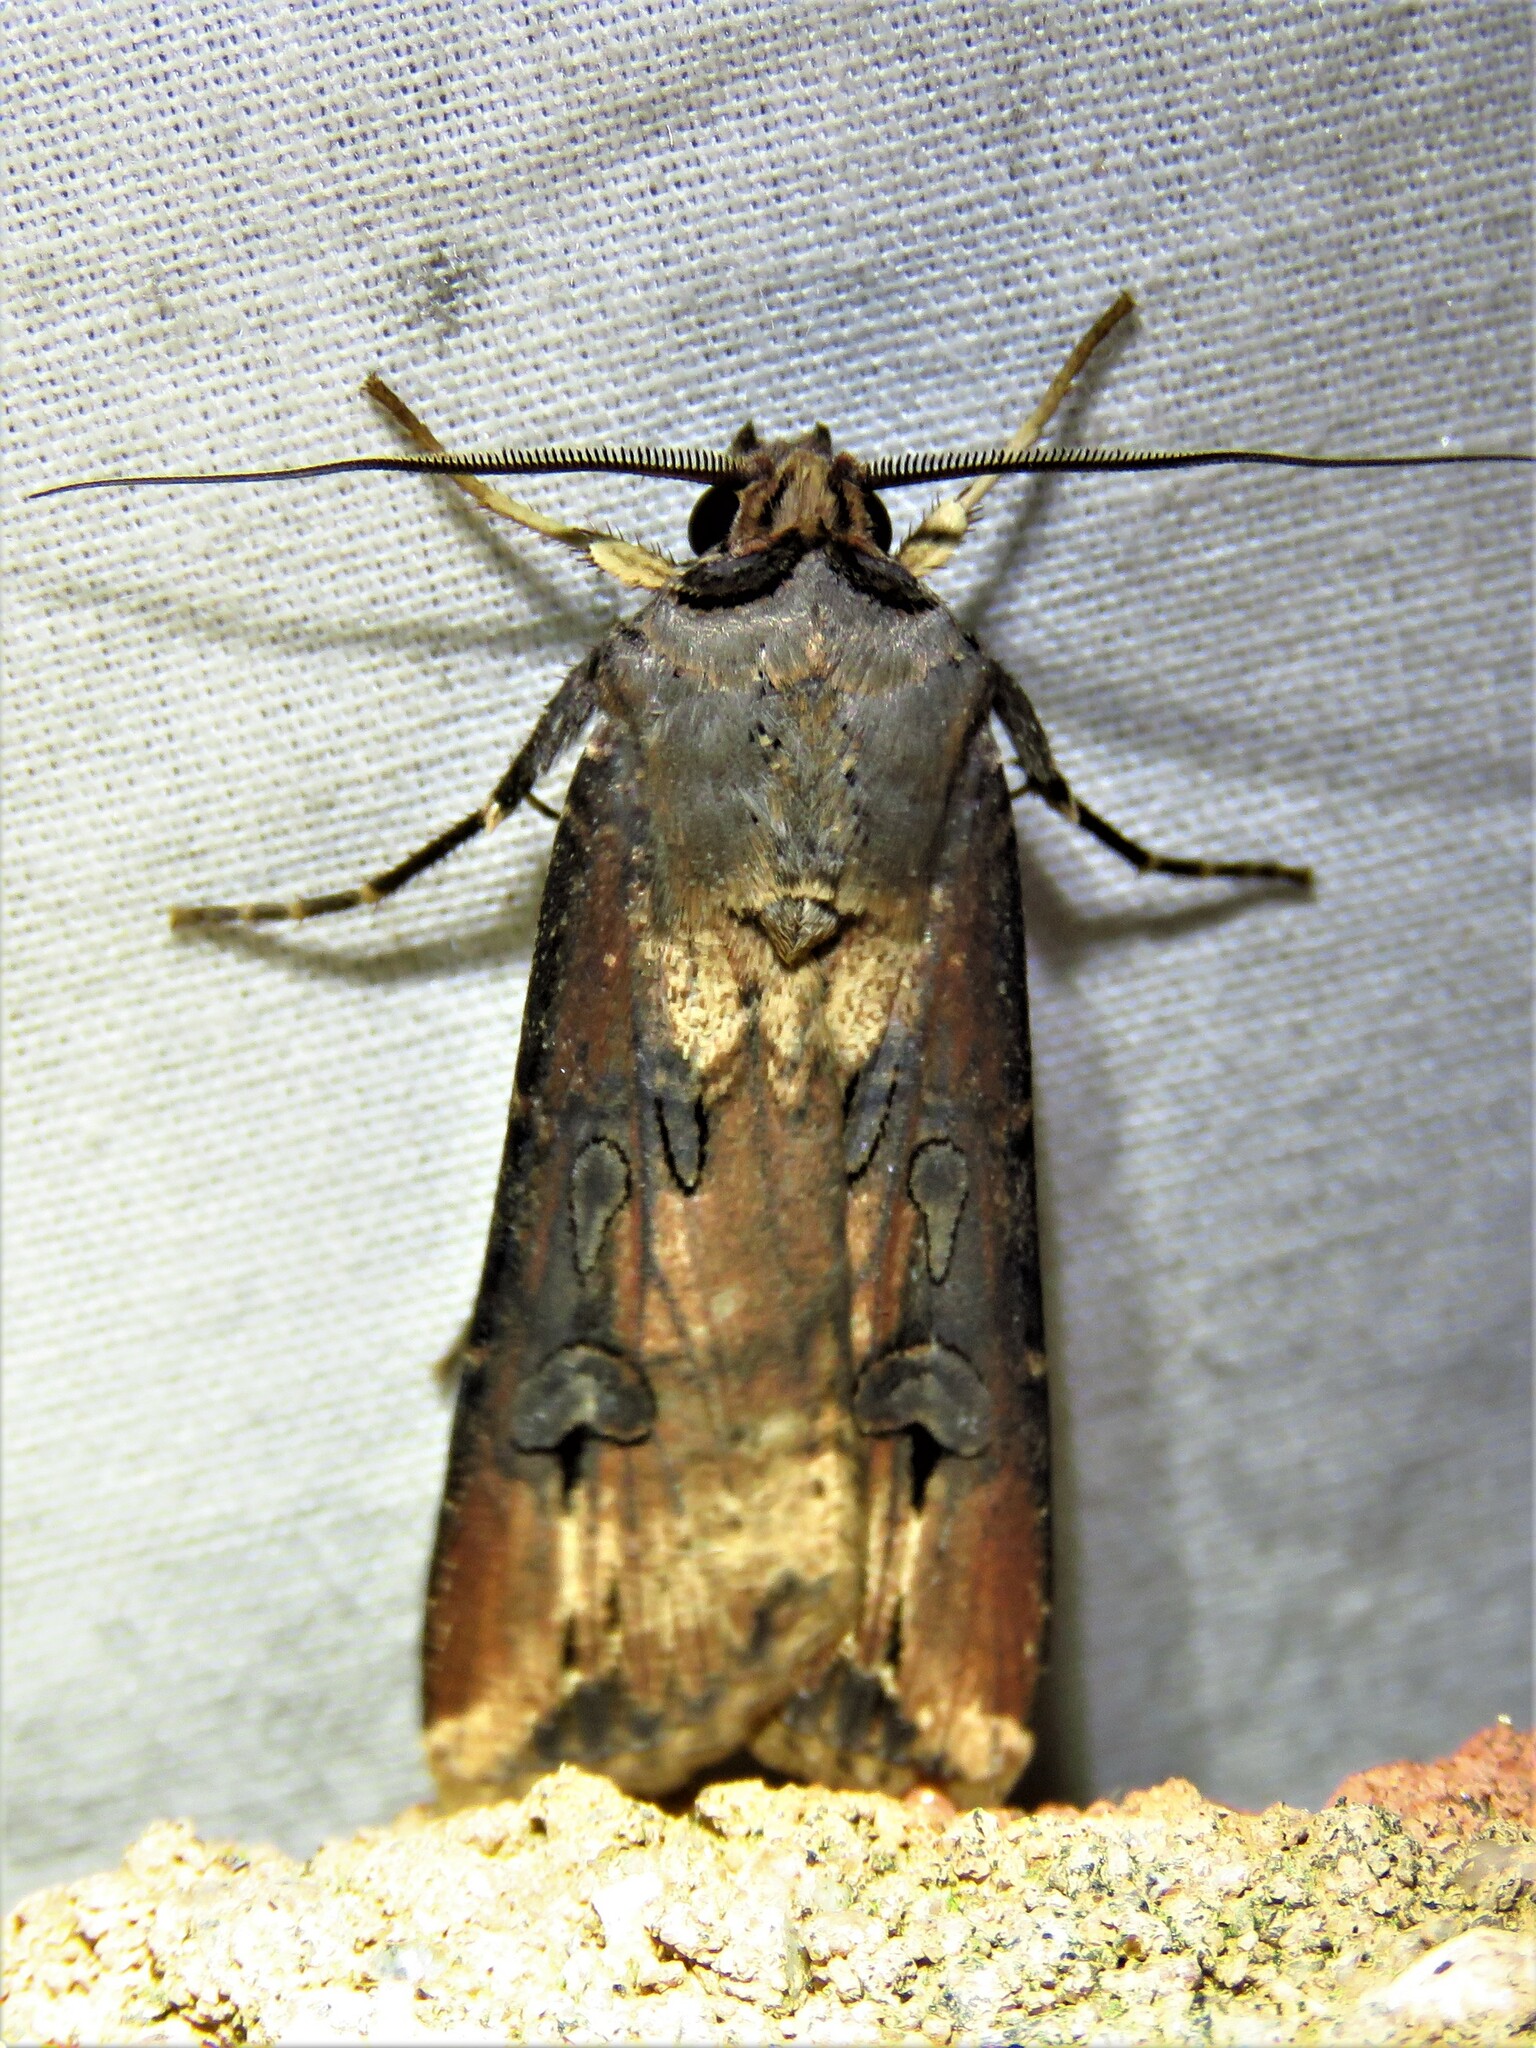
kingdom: Animalia
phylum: Arthropoda
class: Insecta
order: Lepidoptera
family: Noctuidae
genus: Agrotis
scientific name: Agrotis ipsilon
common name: Dark sword-grass
